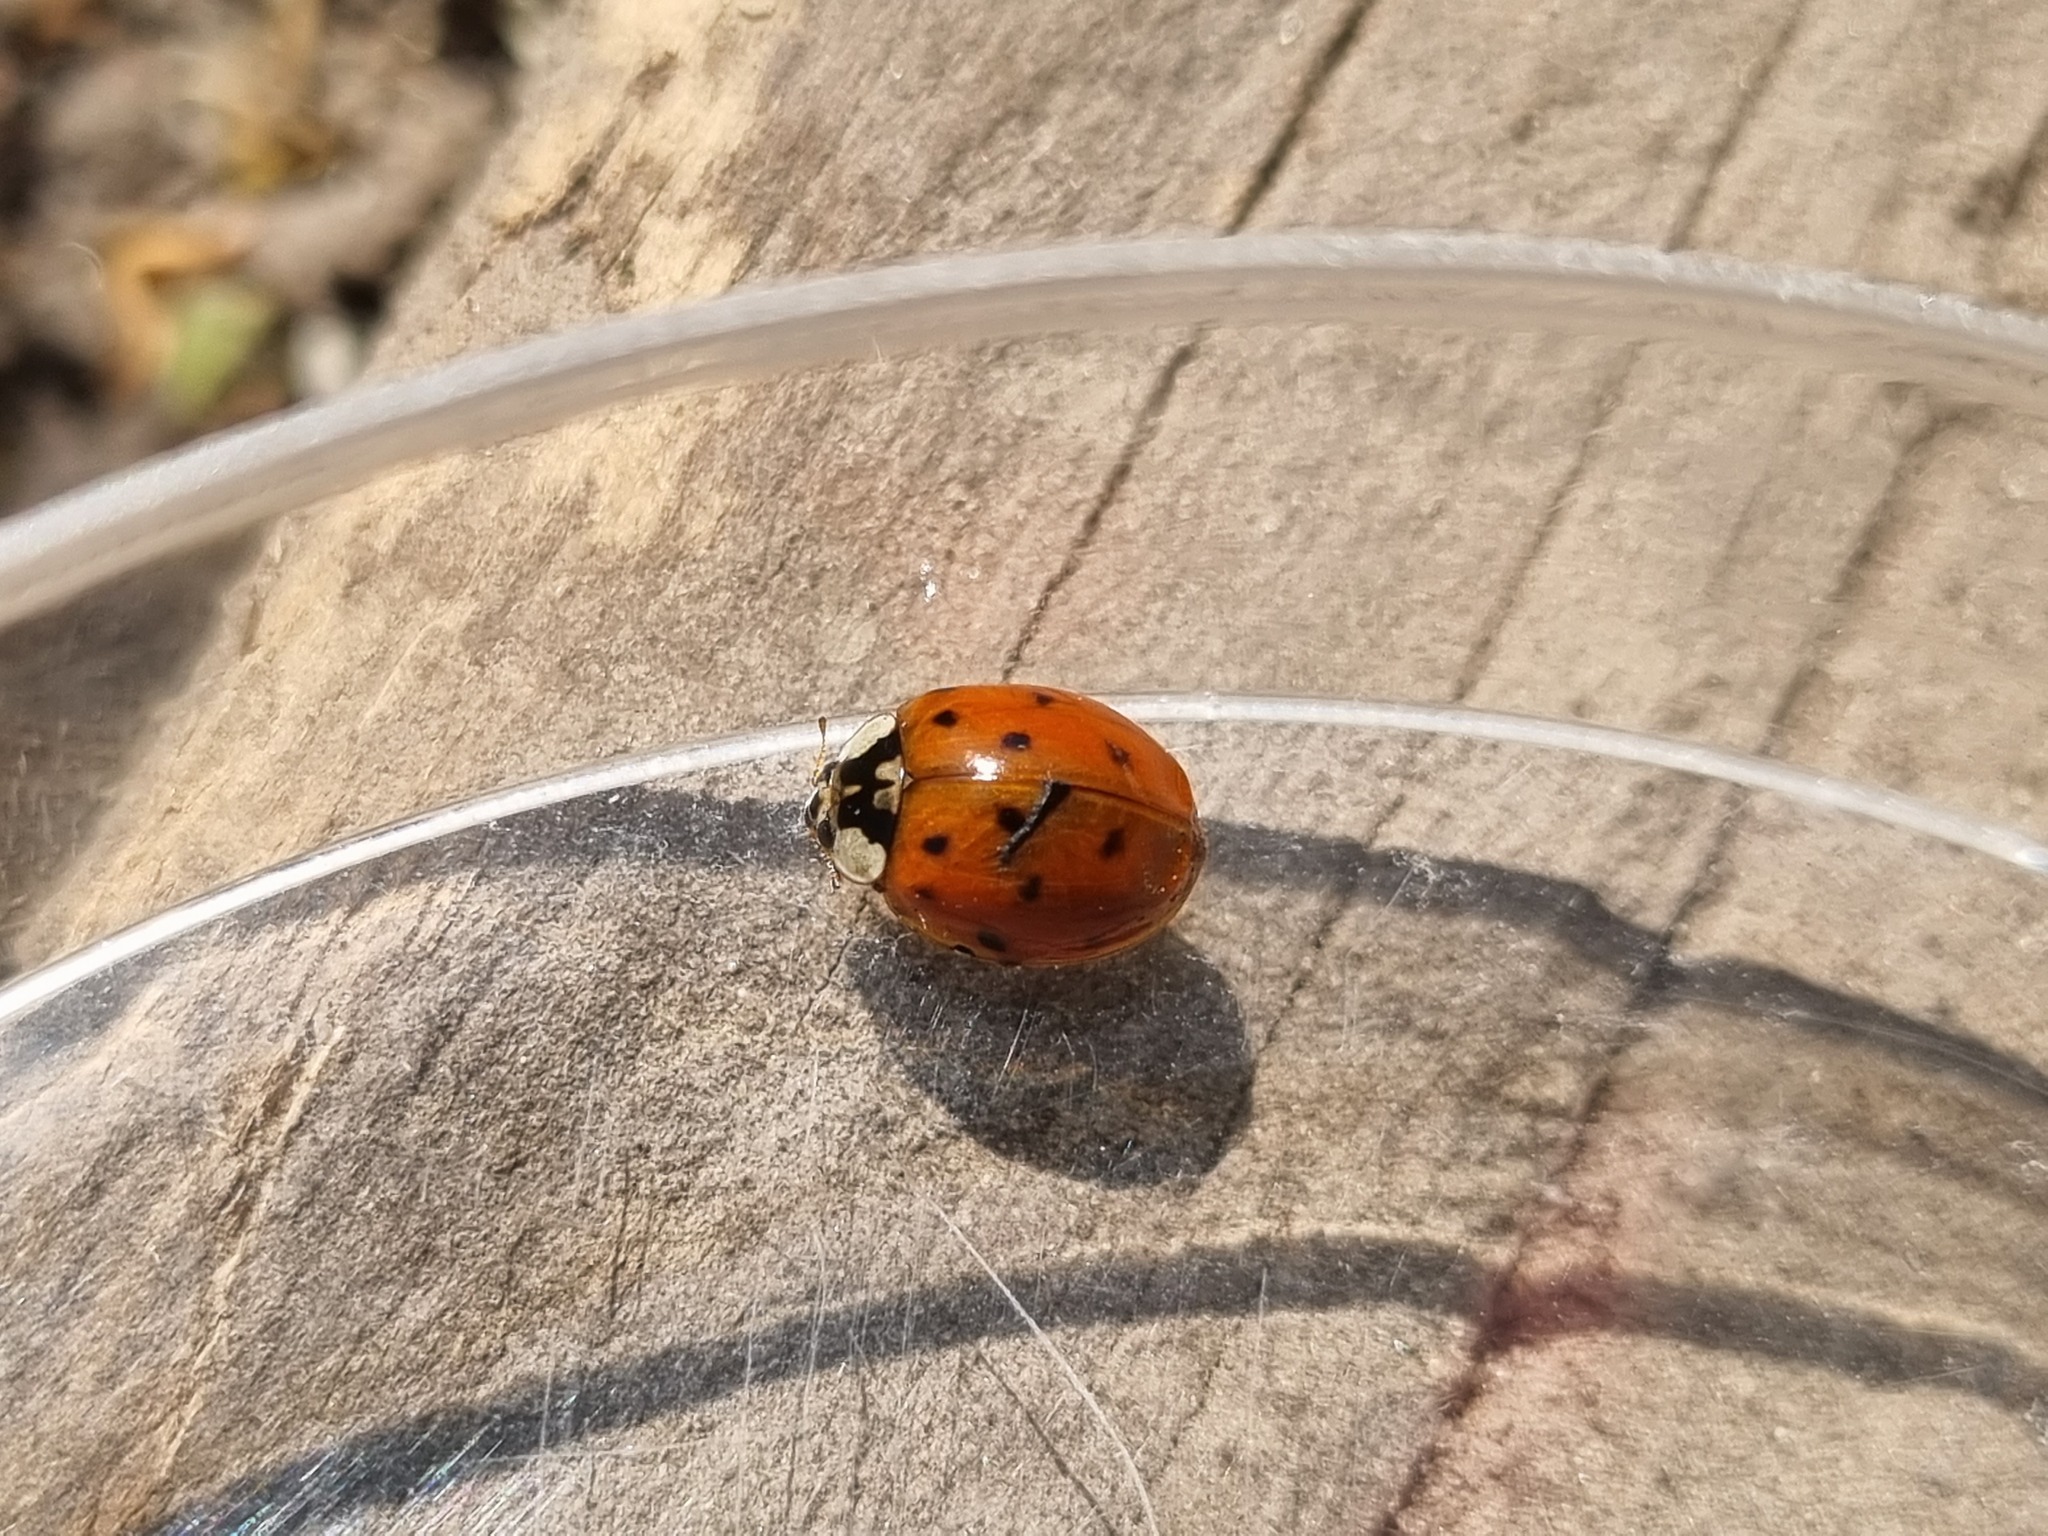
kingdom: Animalia
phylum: Arthropoda
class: Insecta
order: Coleoptera
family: Coccinellidae
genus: Harmonia
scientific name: Harmonia axyridis
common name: Harlequin ladybird
